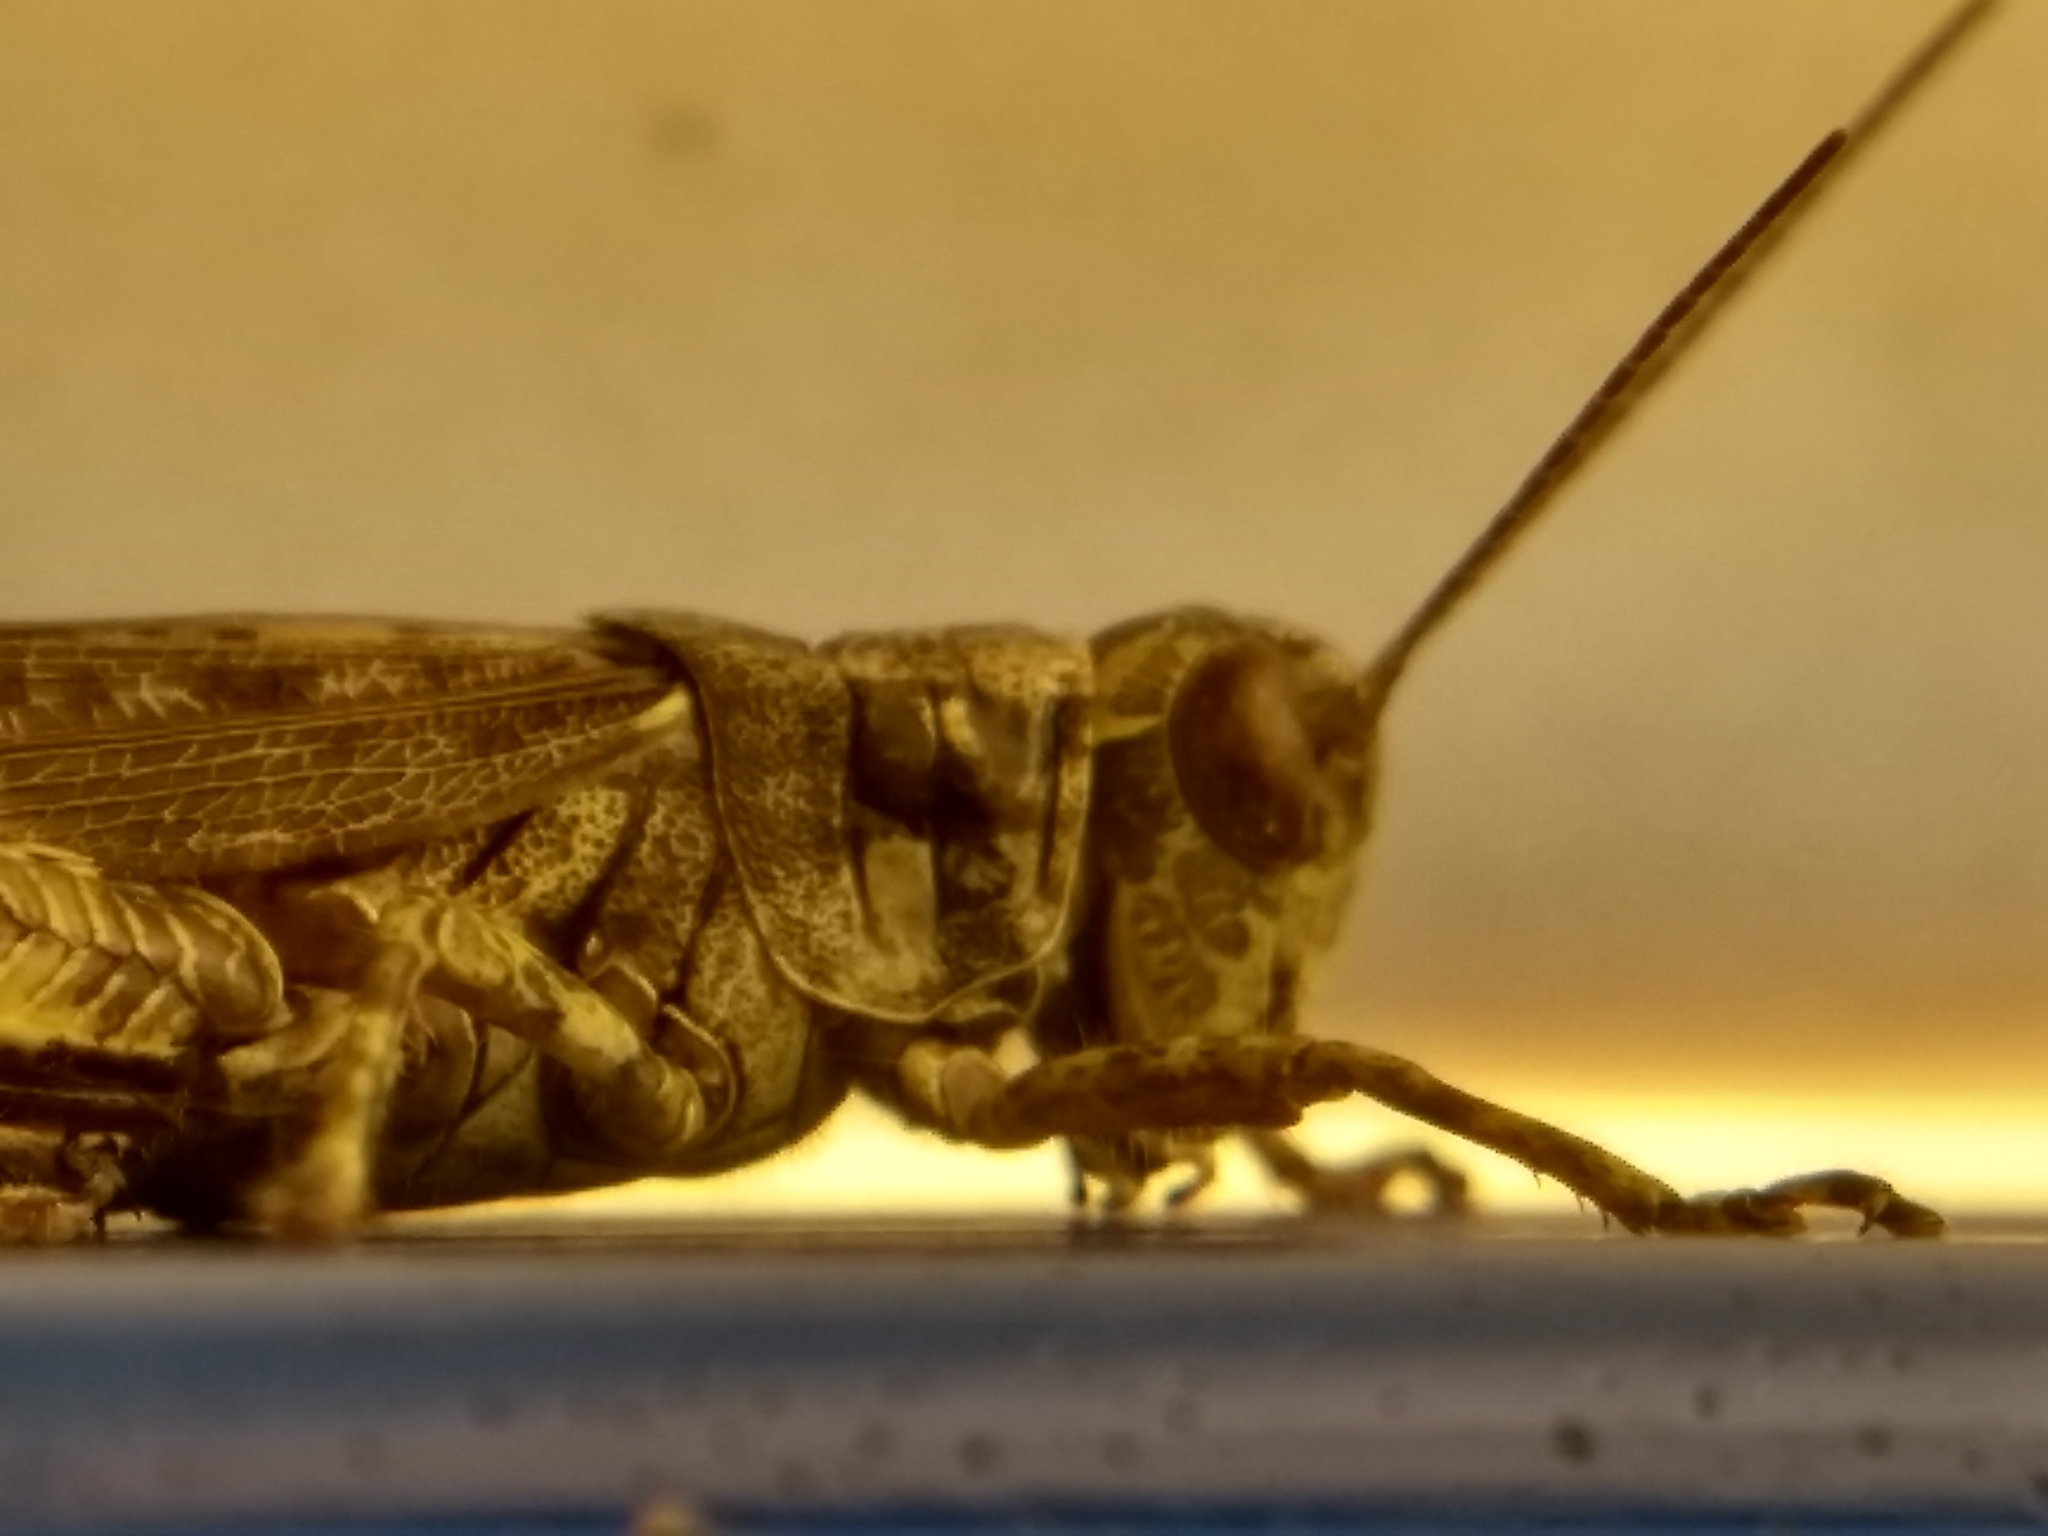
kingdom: Animalia
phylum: Arthropoda
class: Insecta
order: Orthoptera
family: Acrididae
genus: Melanoplus
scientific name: Melanoplus punctulatus
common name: Pine-tree spur-throat grasshopper
